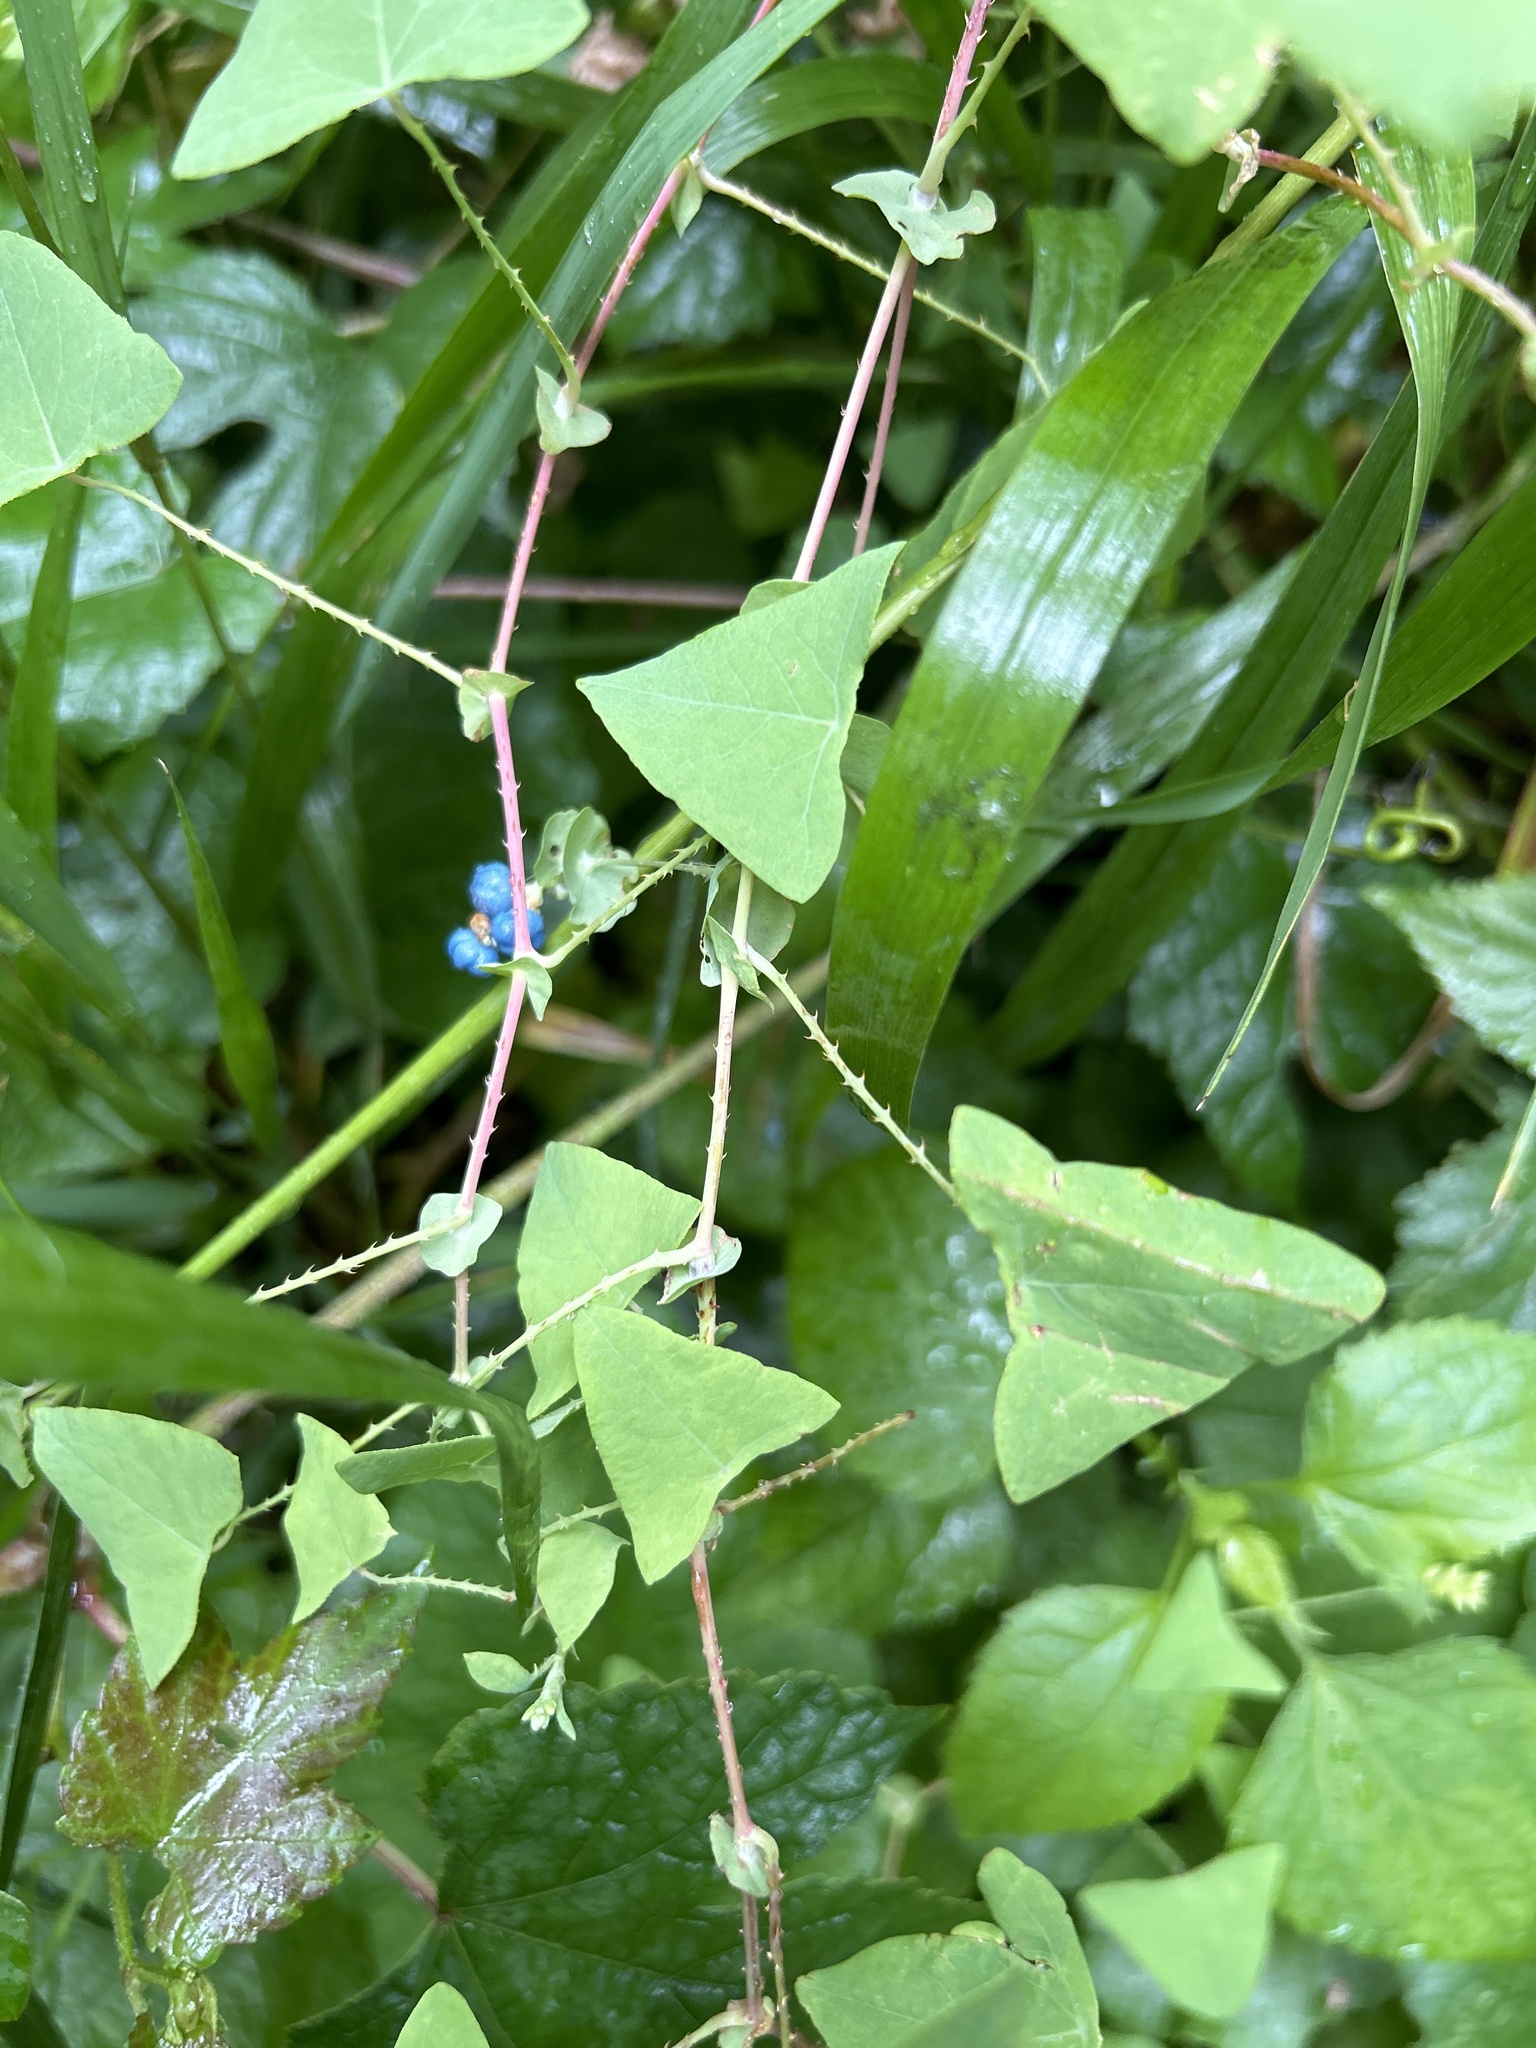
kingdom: Plantae
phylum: Tracheophyta
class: Magnoliopsida
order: Caryophyllales
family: Polygonaceae
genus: Persicaria
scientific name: Persicaria perfoliata
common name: Asiatic tearthumb
